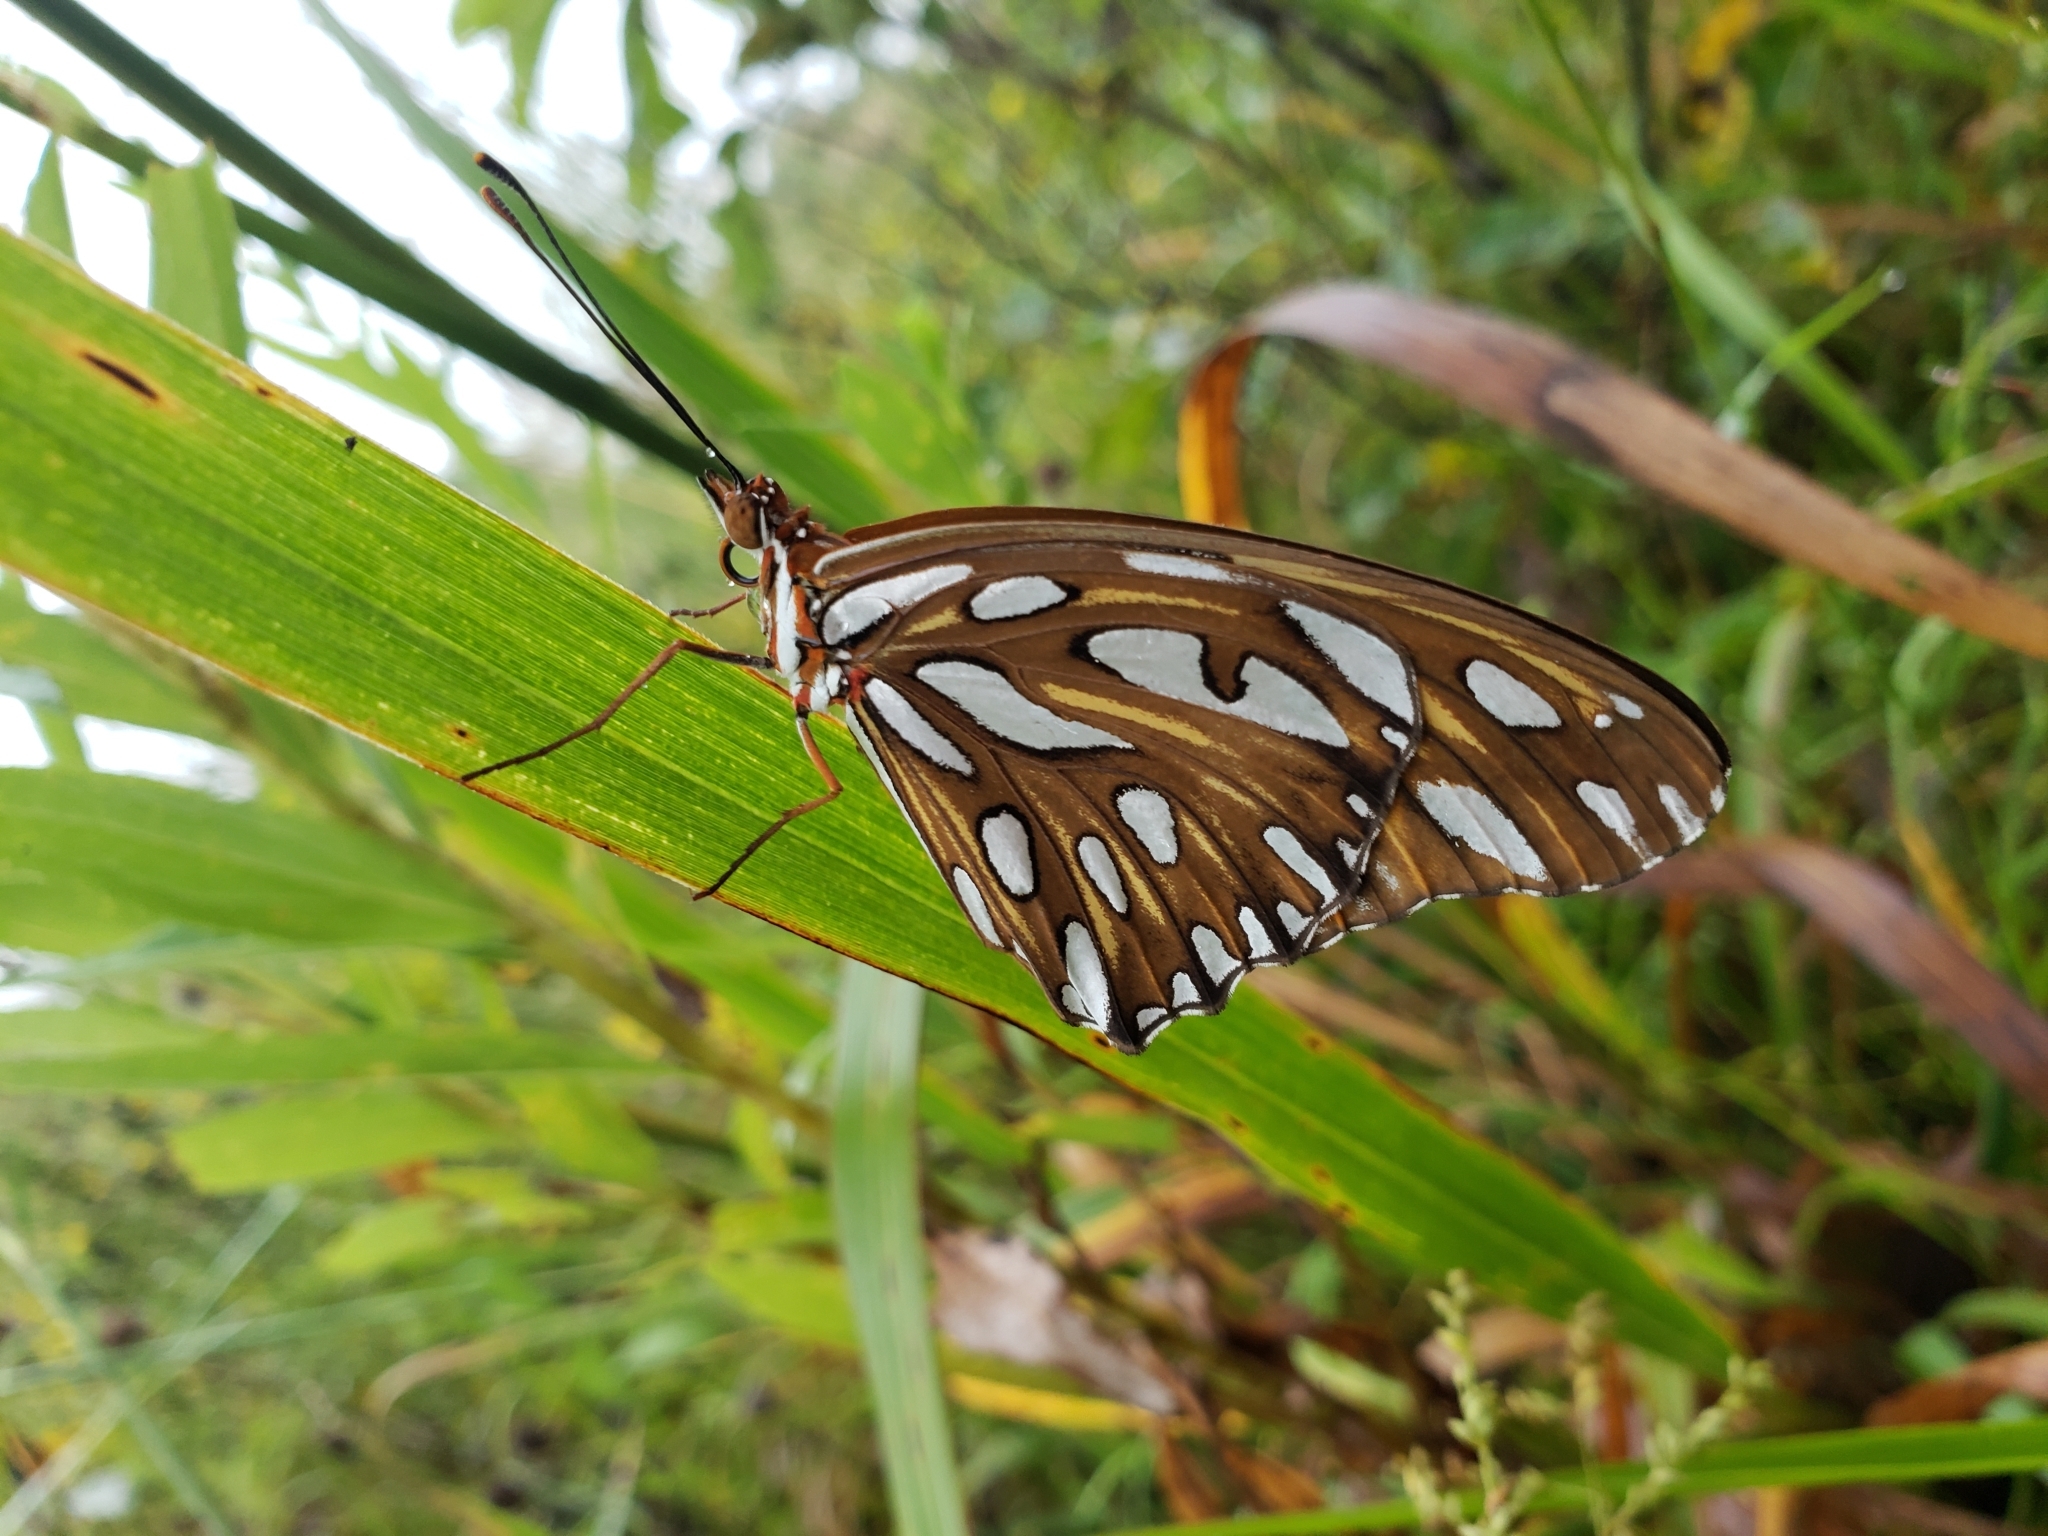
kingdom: Animalia
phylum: Arthropoda
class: Insecta
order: Lepidoptera
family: Nymphalidae
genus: Dione
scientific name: Dione vanillae
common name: Gulf fritillary
